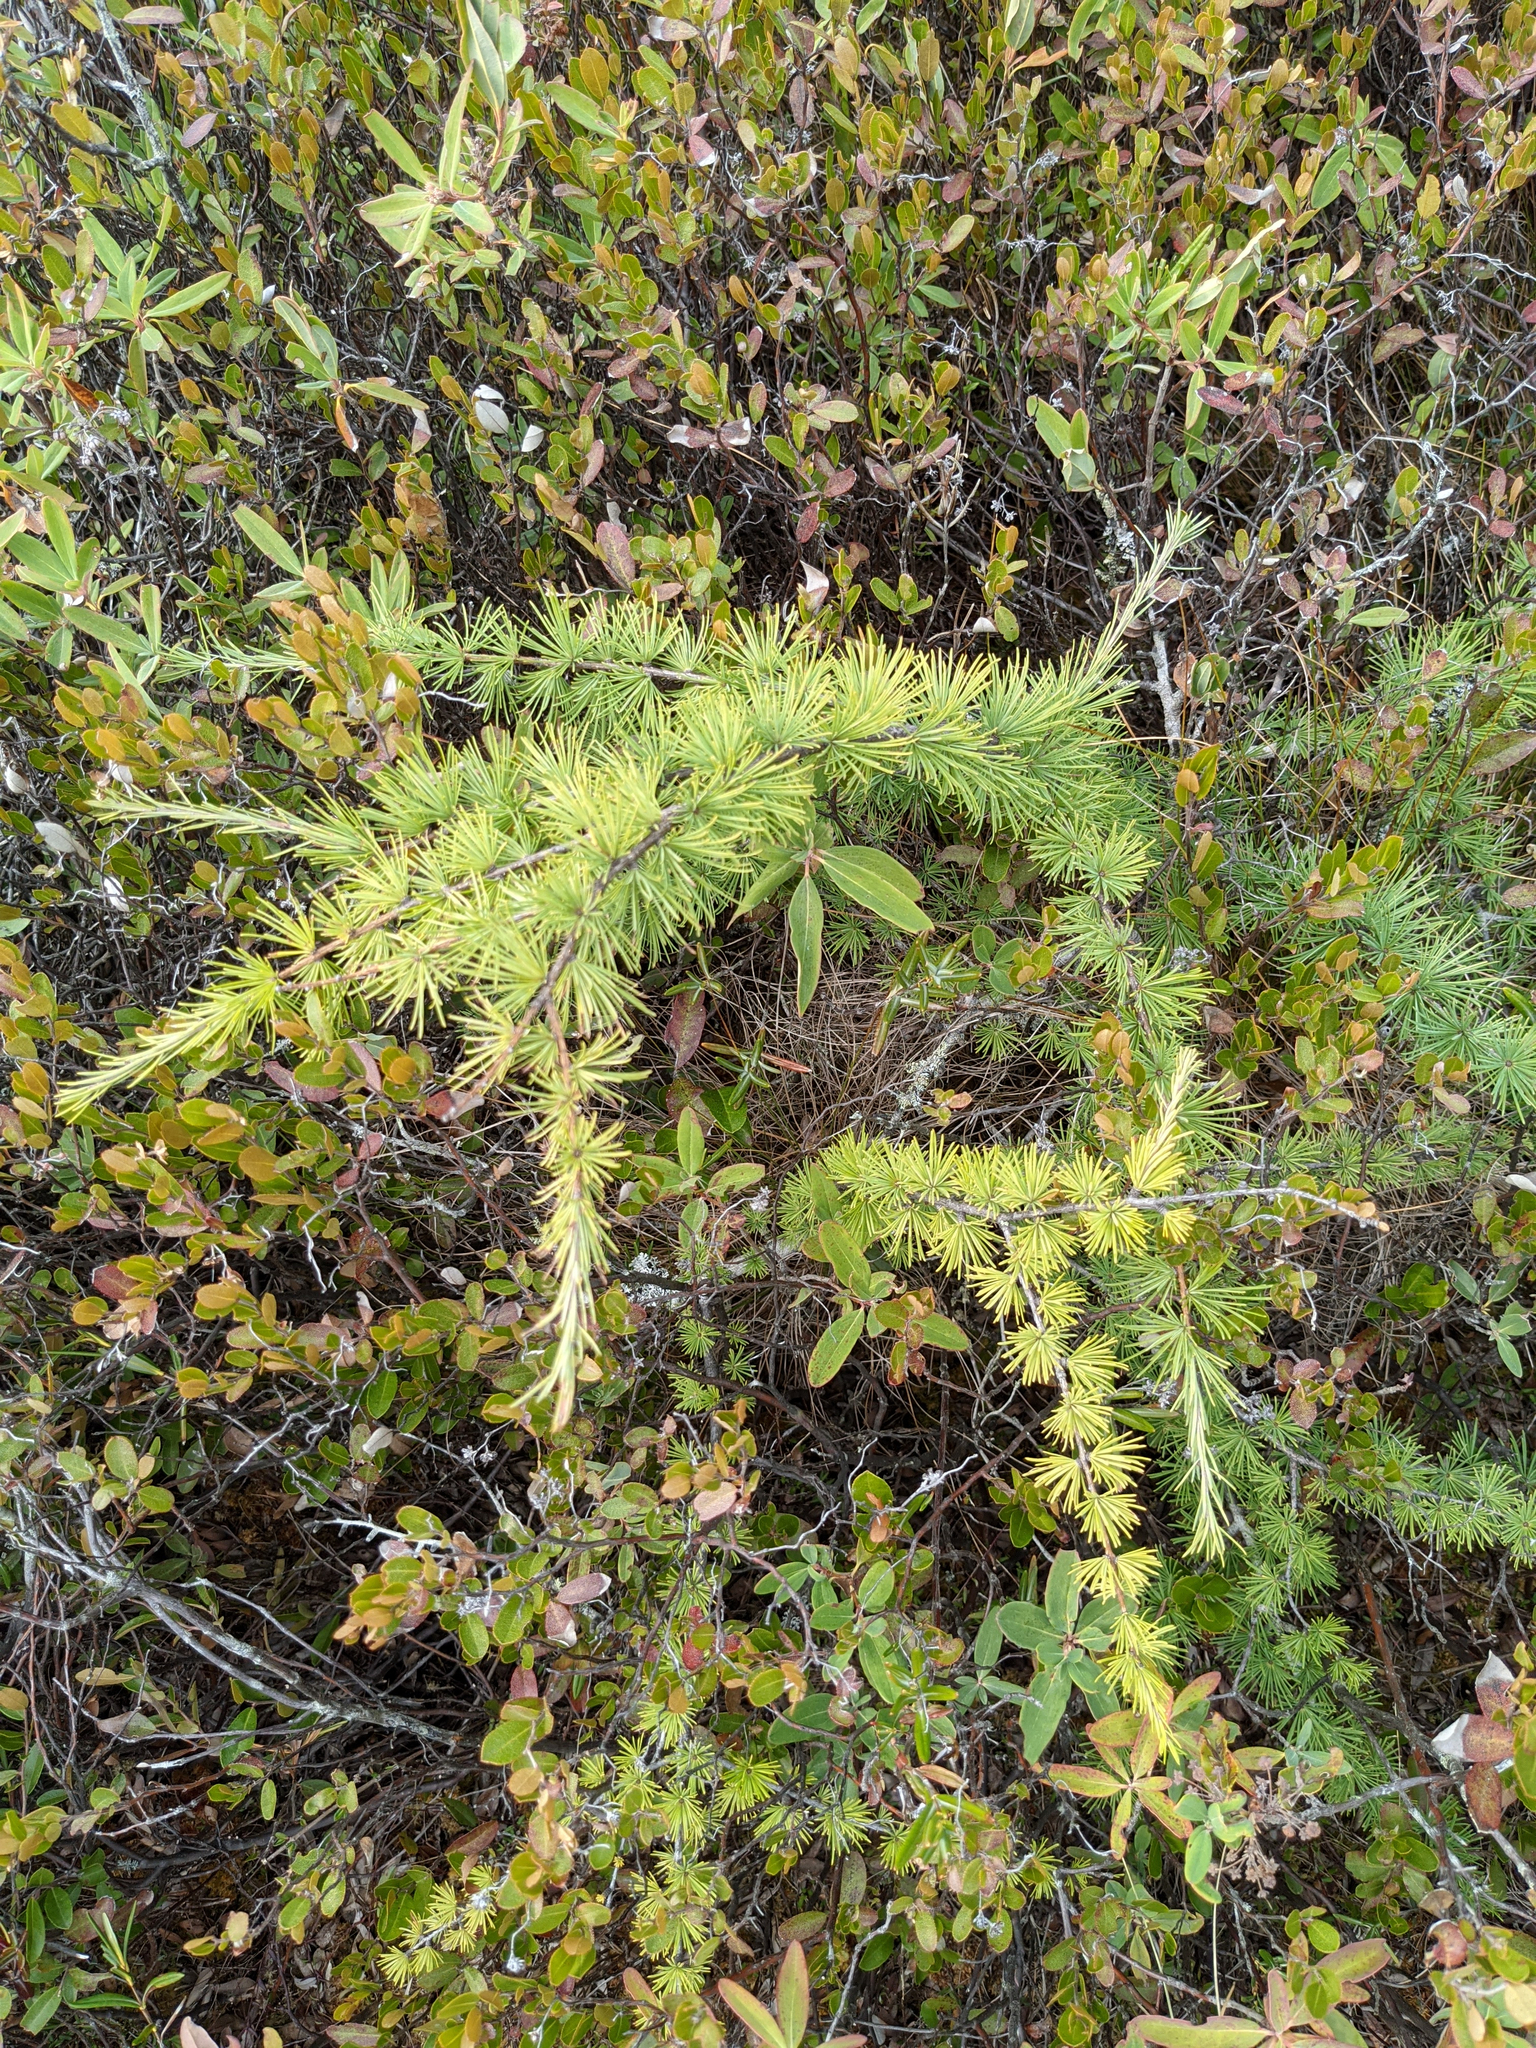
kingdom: Plantae
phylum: Tracheophyta
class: Pinopsida
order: Pinales
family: Pinaceae
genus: Larix
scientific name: Larix laricina
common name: American larch
